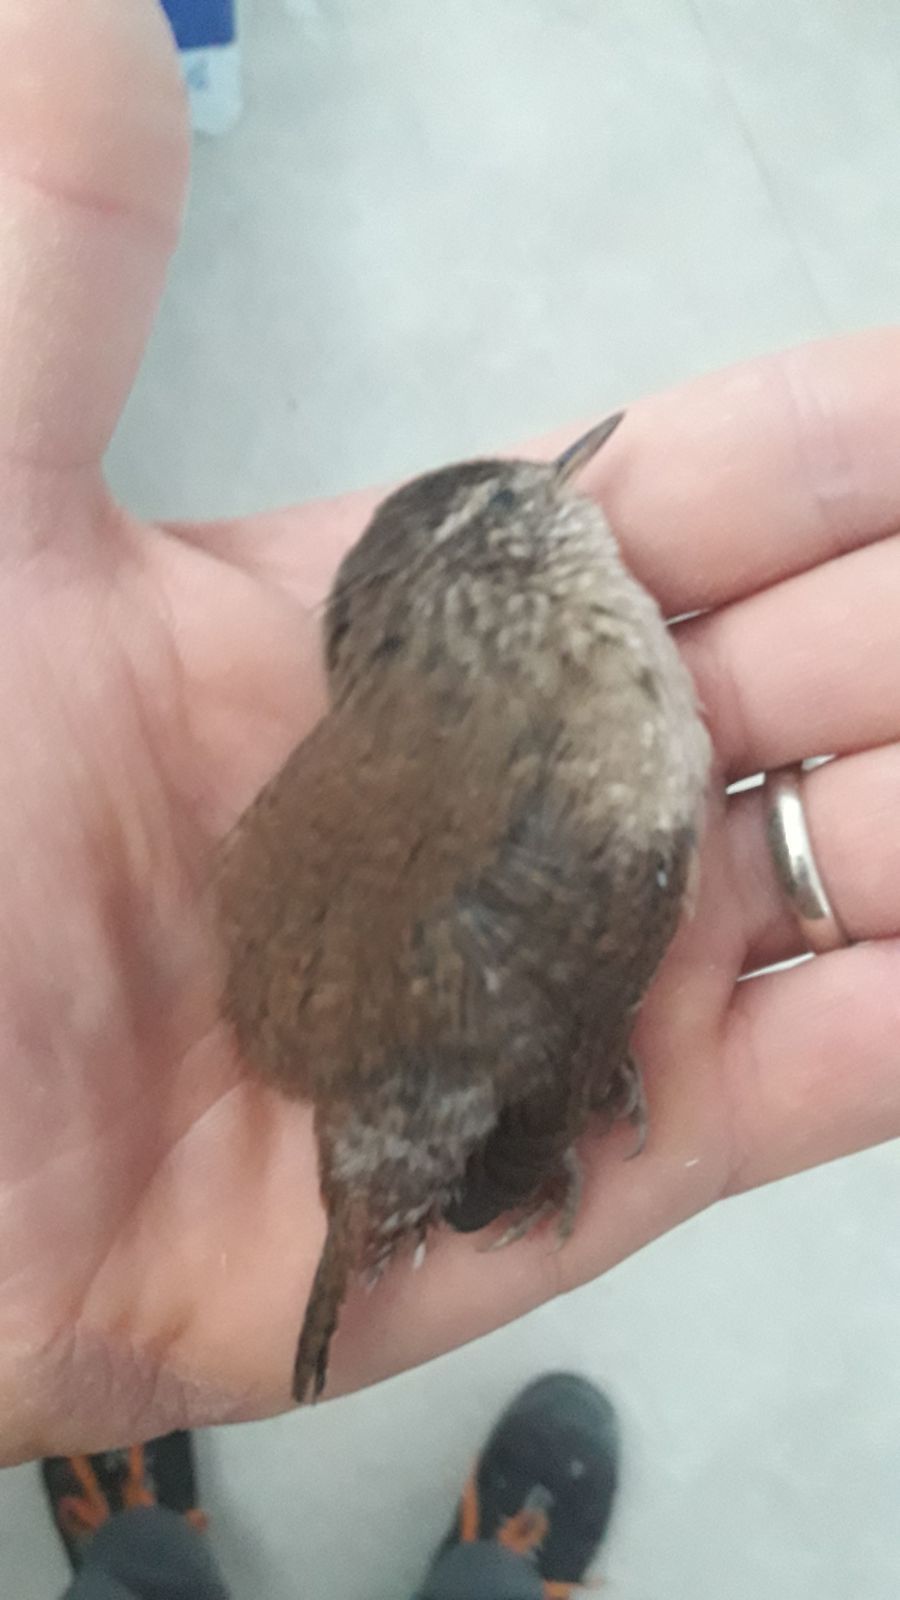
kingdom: Animalia
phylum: Chordata
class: Aves
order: Passeriformes
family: Troglodytidae
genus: Troglodytes
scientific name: Troglodytes troglodytes
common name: Eurasian wren
